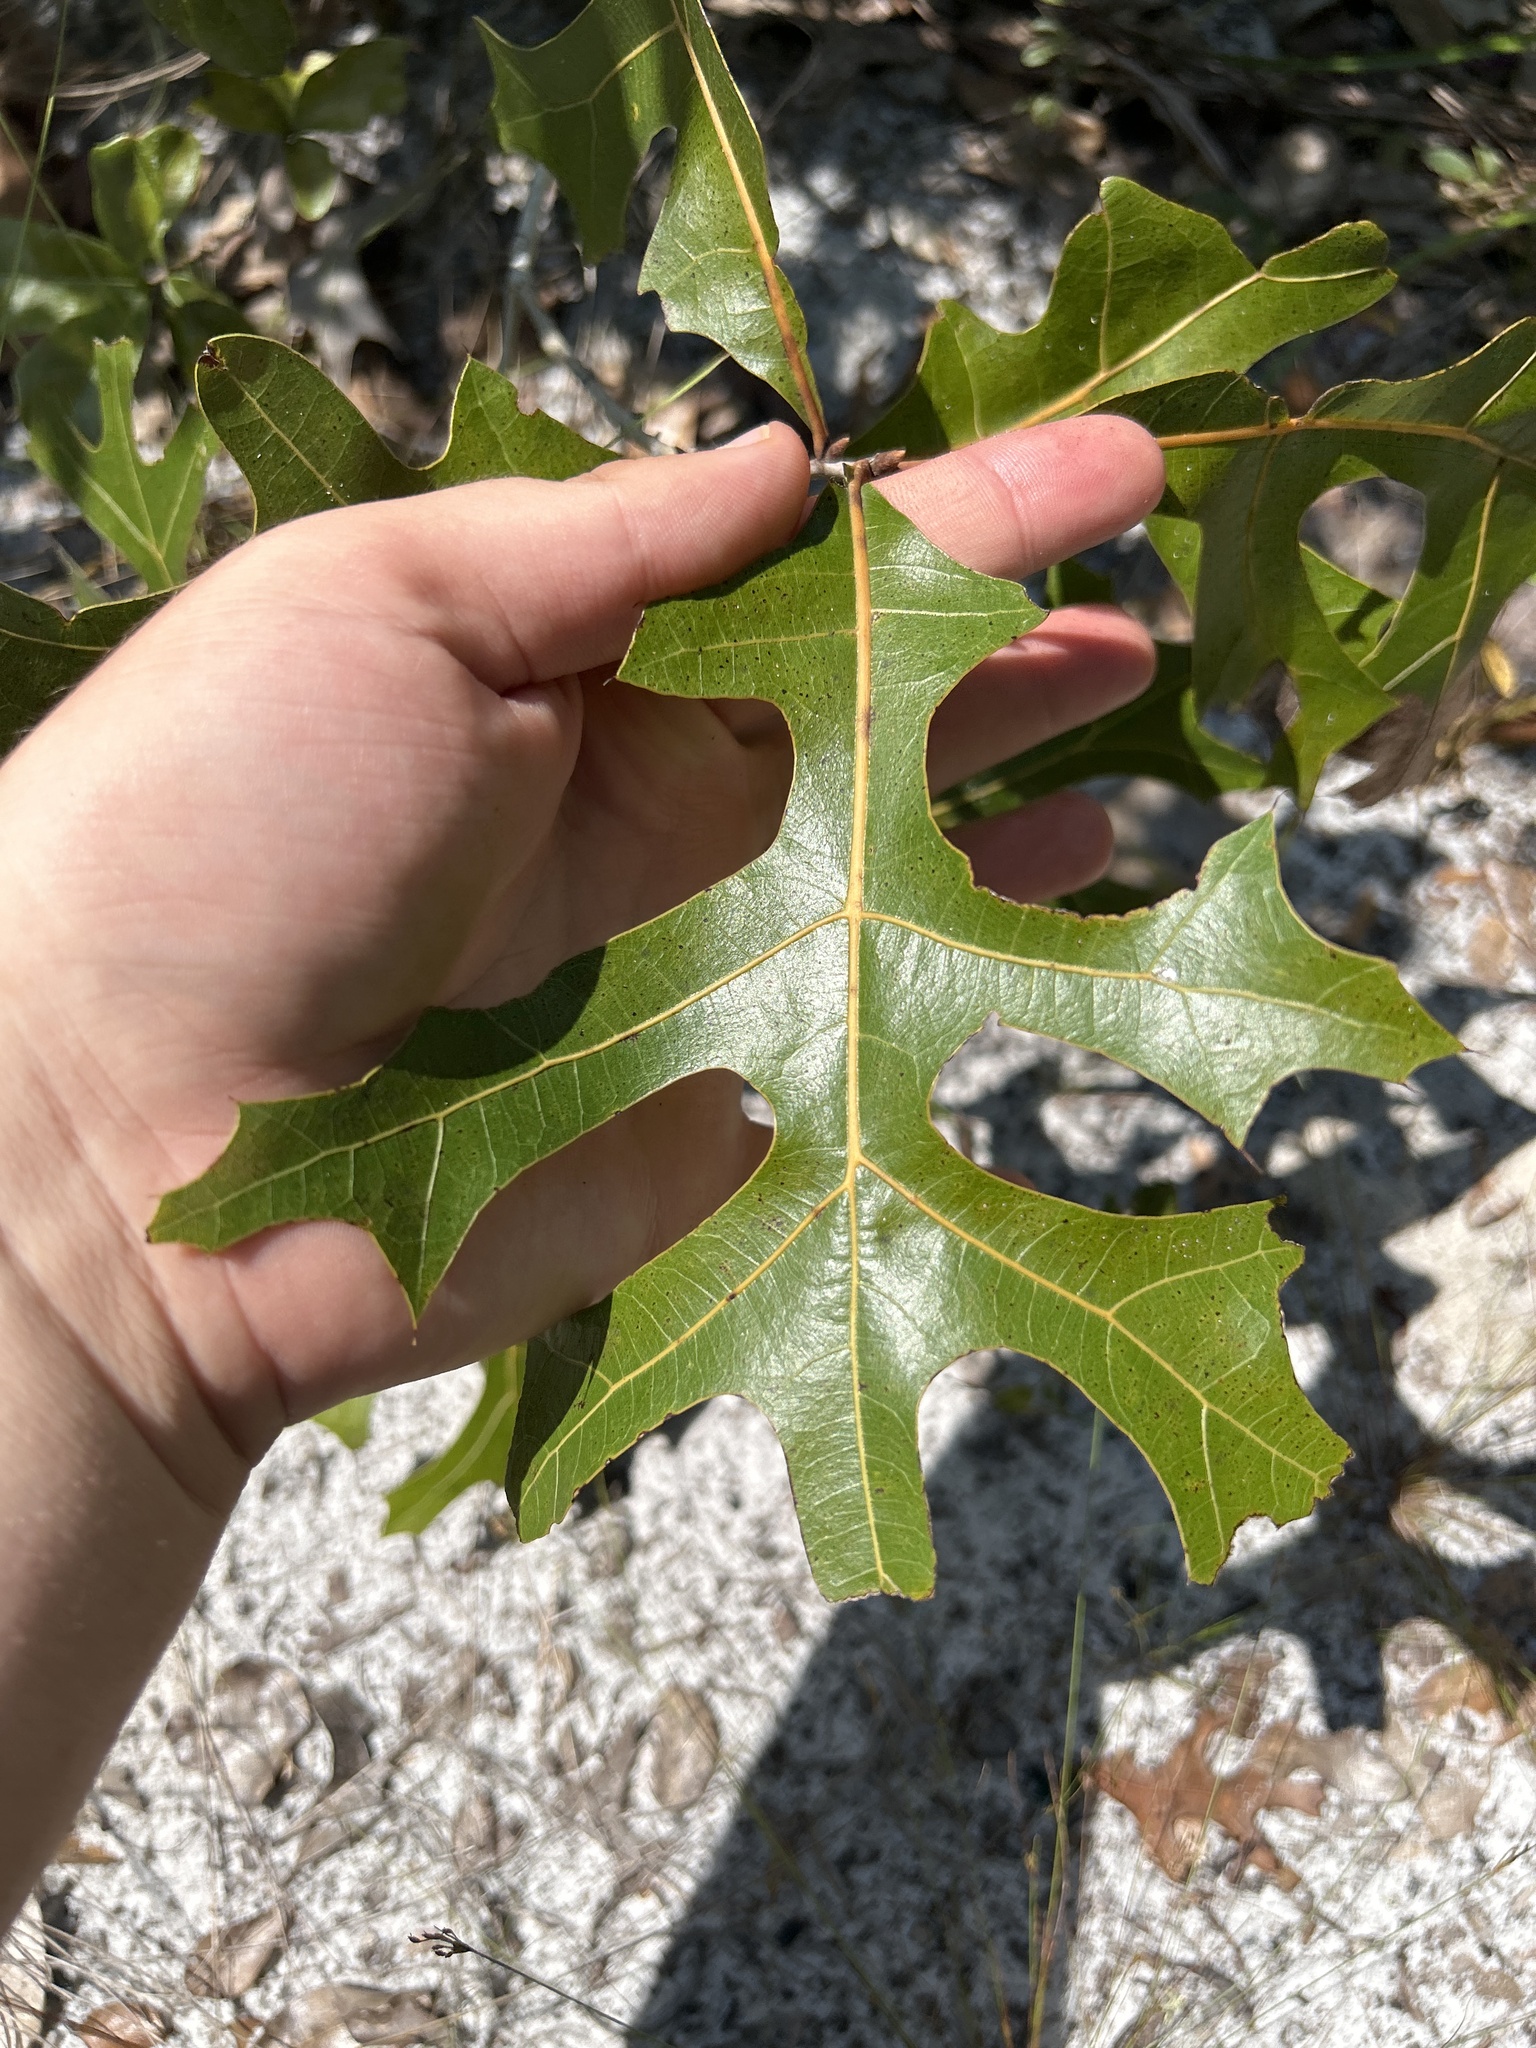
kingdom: Plantae
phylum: Tracheophyta
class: Magnoliopsida
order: Fagales
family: Fagaceae
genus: Quercus
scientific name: Quercus laevis
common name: Turkey oak
